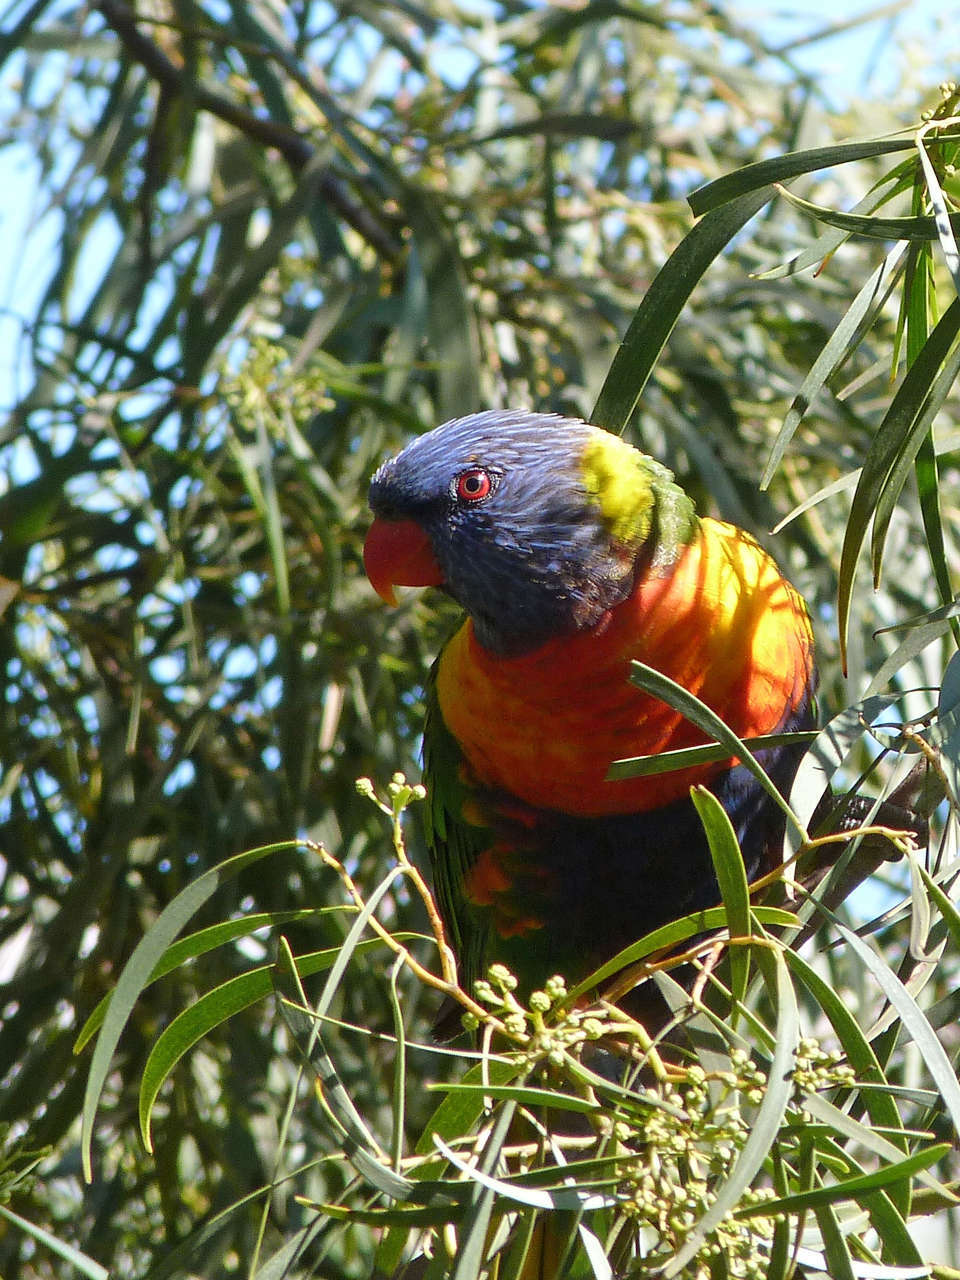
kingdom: Animalia
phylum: Chordata
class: Aves
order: Psittaciformes
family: Psittacidae
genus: Trichoglossus
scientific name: Trichoglossus haematodus
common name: Coconut lorikeet
